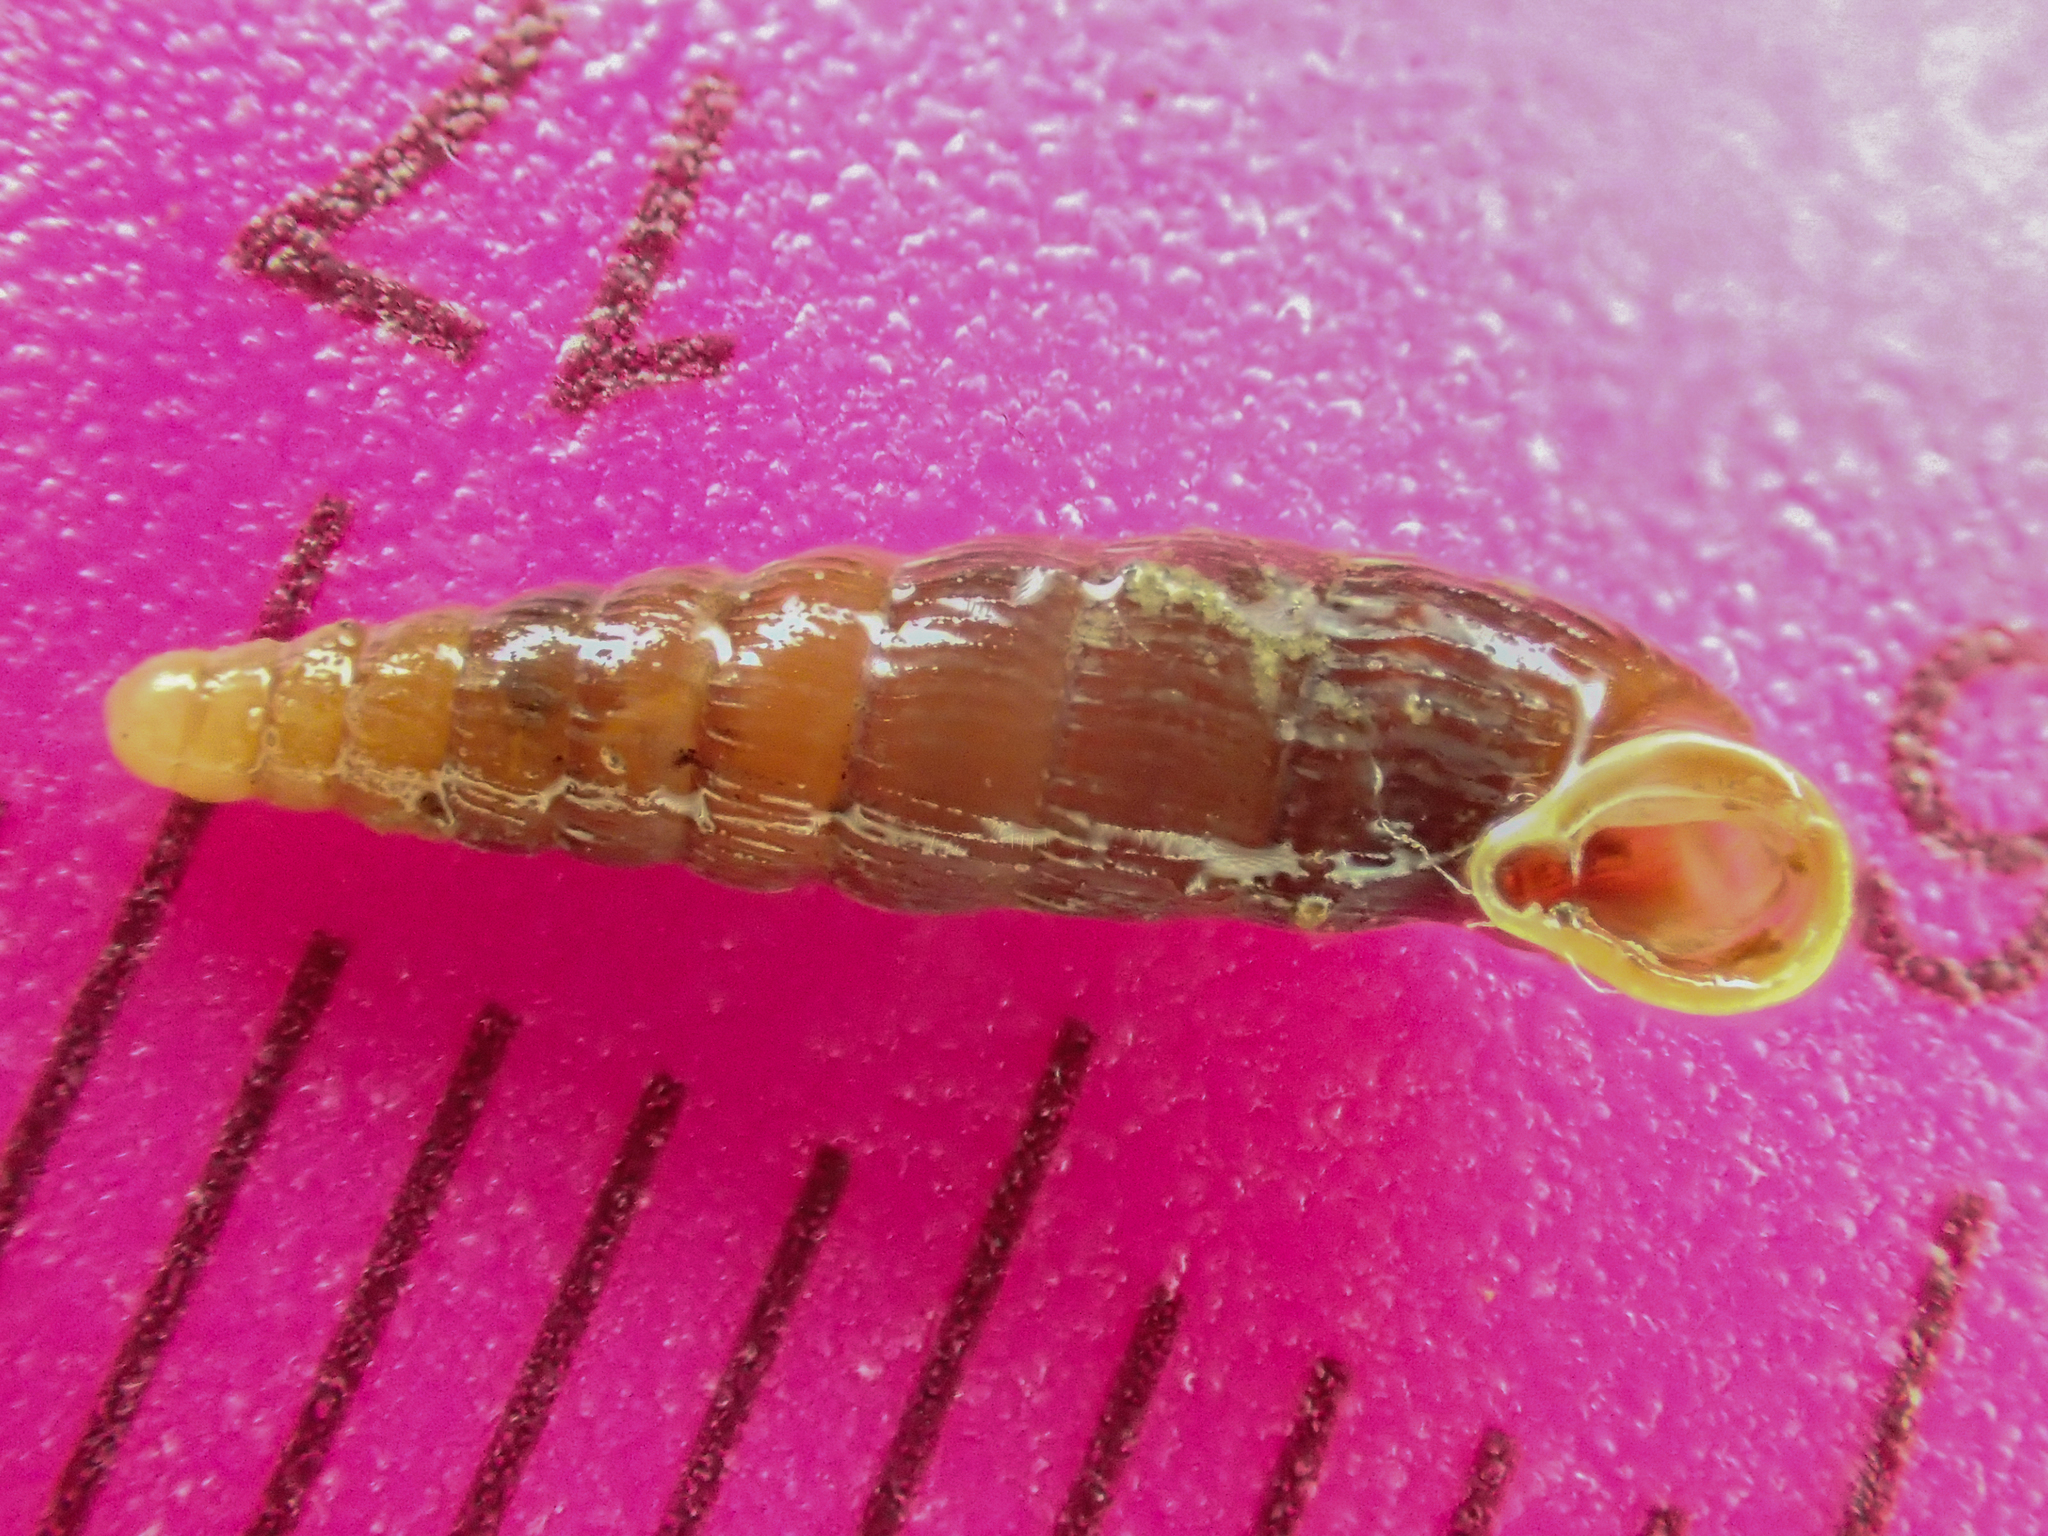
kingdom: Animalia
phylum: Mollusca
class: Gastropoda
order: Stylommatophora
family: Clausiliidae
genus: Clausilia
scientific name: Clausilia rugosa
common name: Tiny door snail
